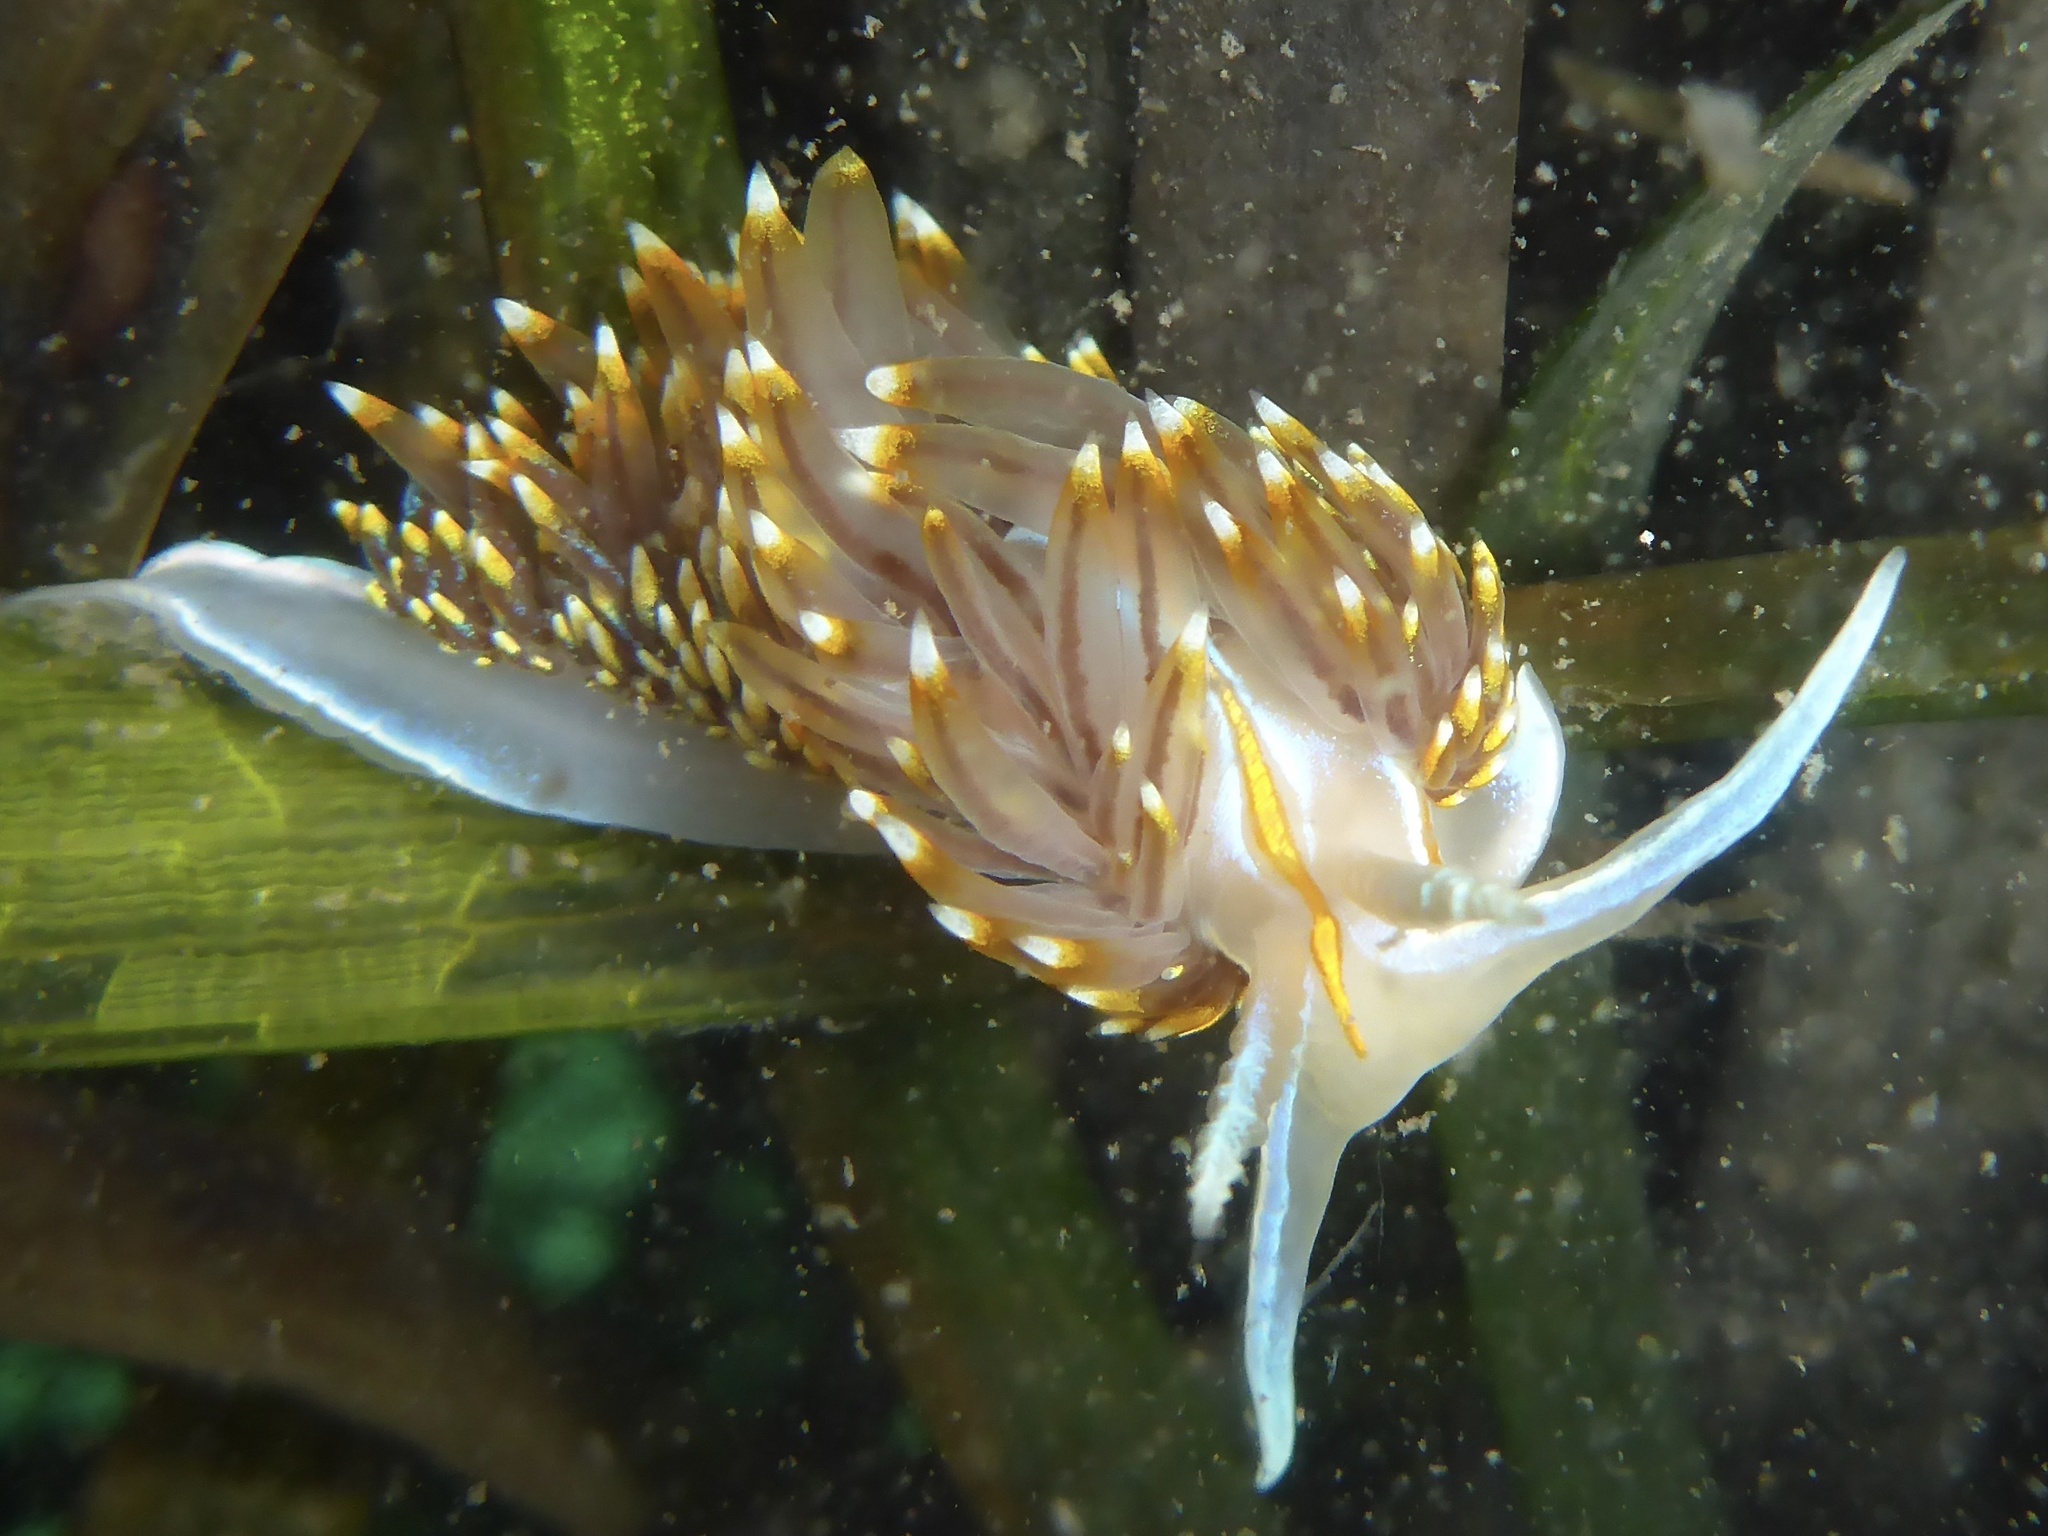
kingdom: Animalia
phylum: Mollusca
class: Gastropoda
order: Nudibranchia
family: Myrrhinidae
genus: Hermissenda
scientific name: Hermissenda opalescens
